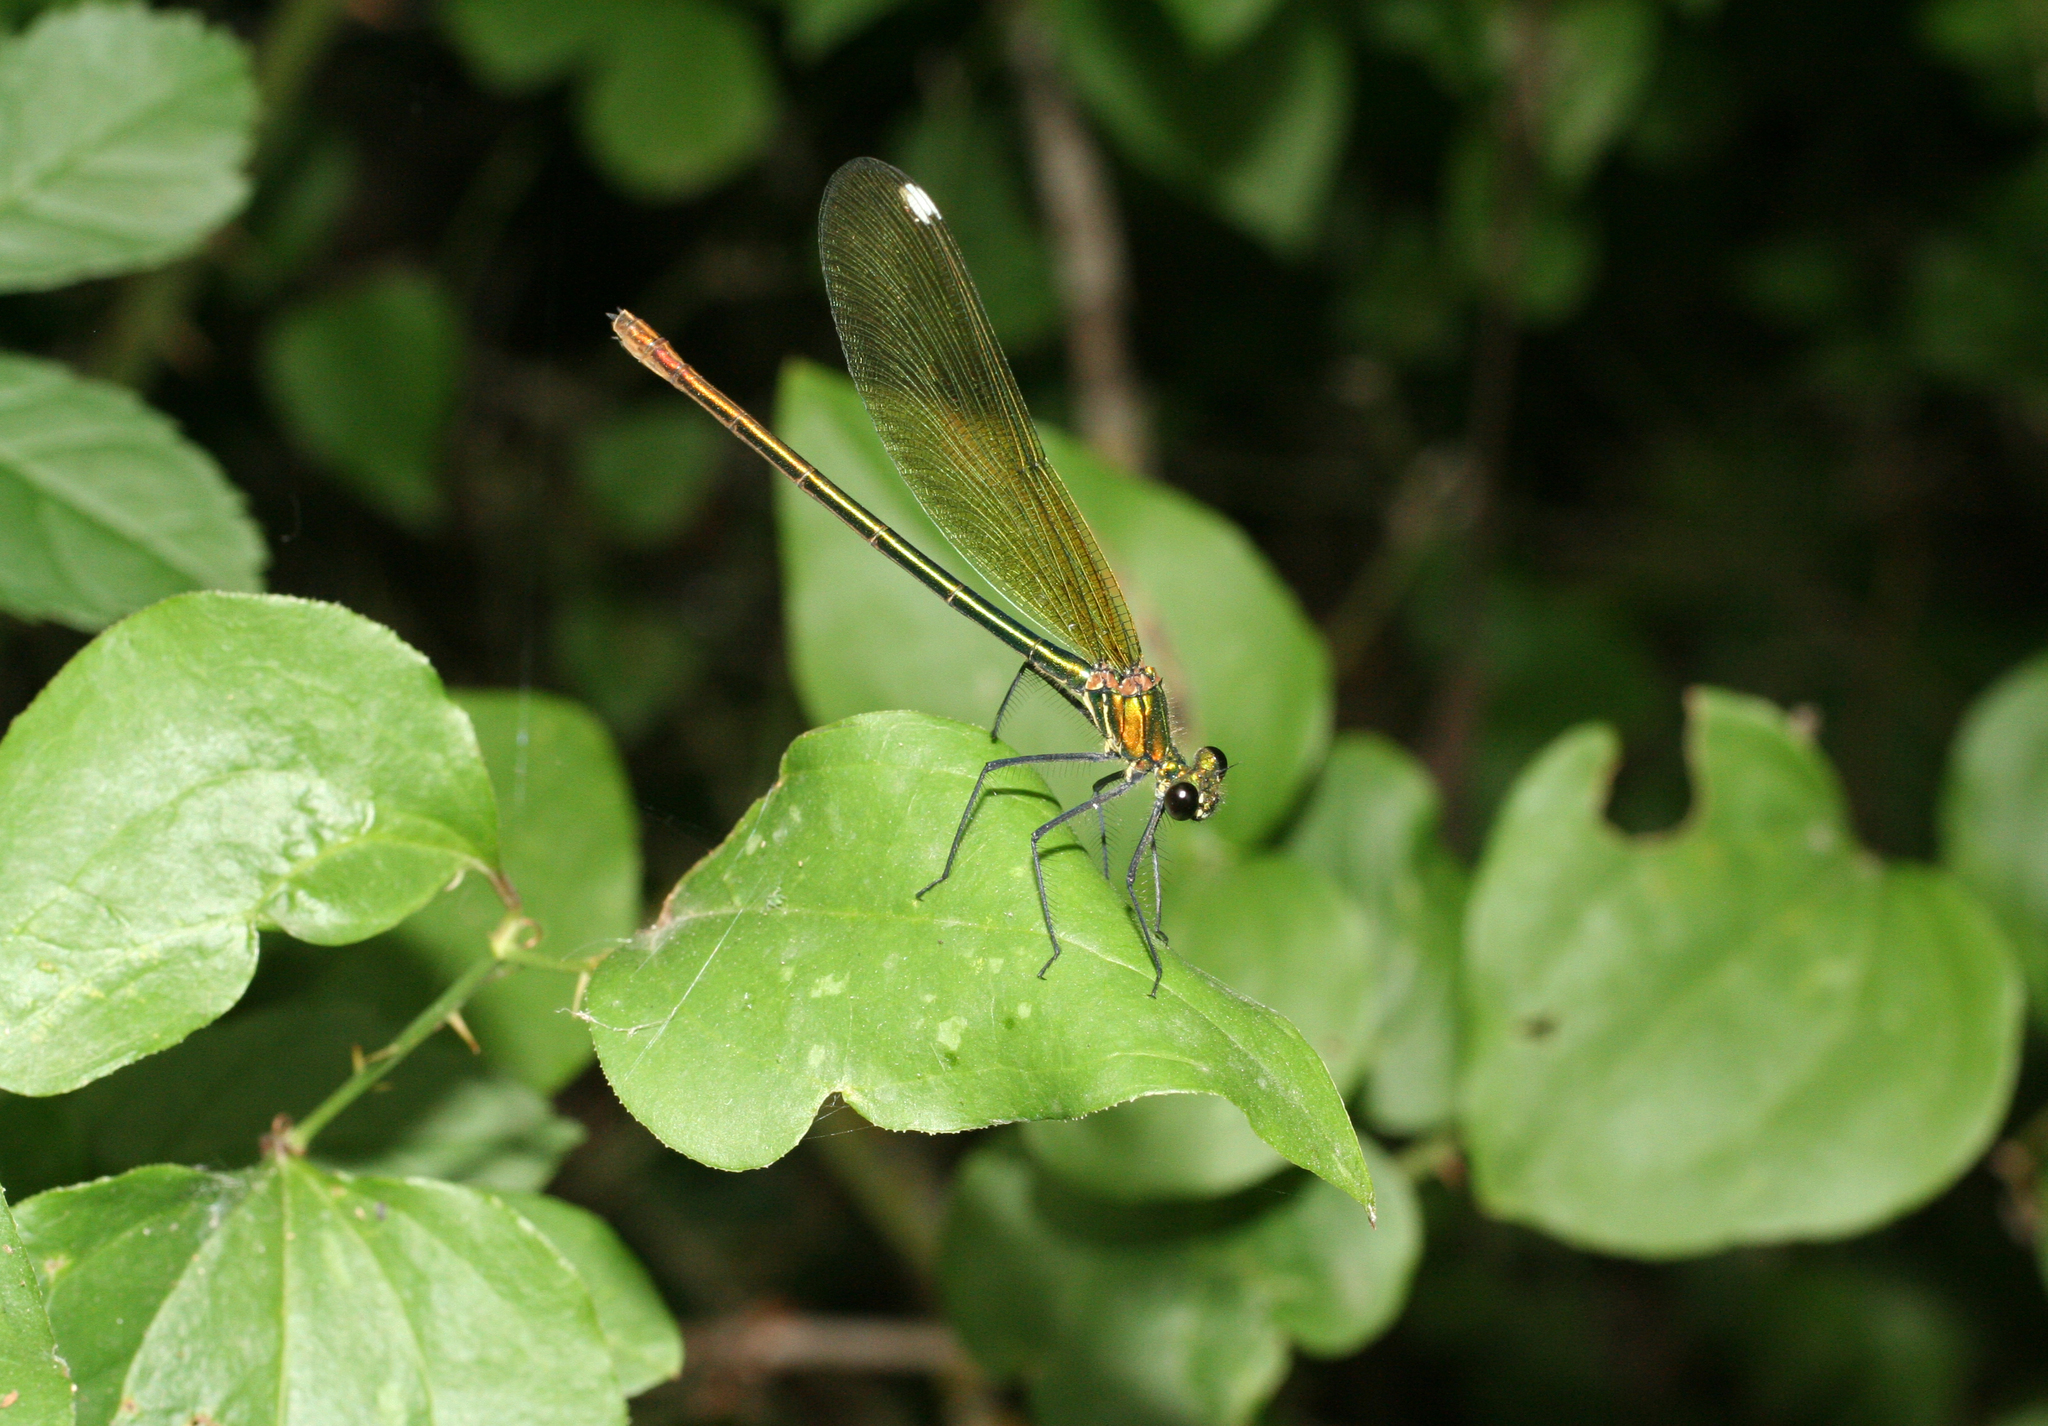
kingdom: Animalia
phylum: Arthropoda
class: Insecta
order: Odonata
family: Calopterygidae
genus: Calopteryx
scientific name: Calopteryx splendens
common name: Banded demoiselle
